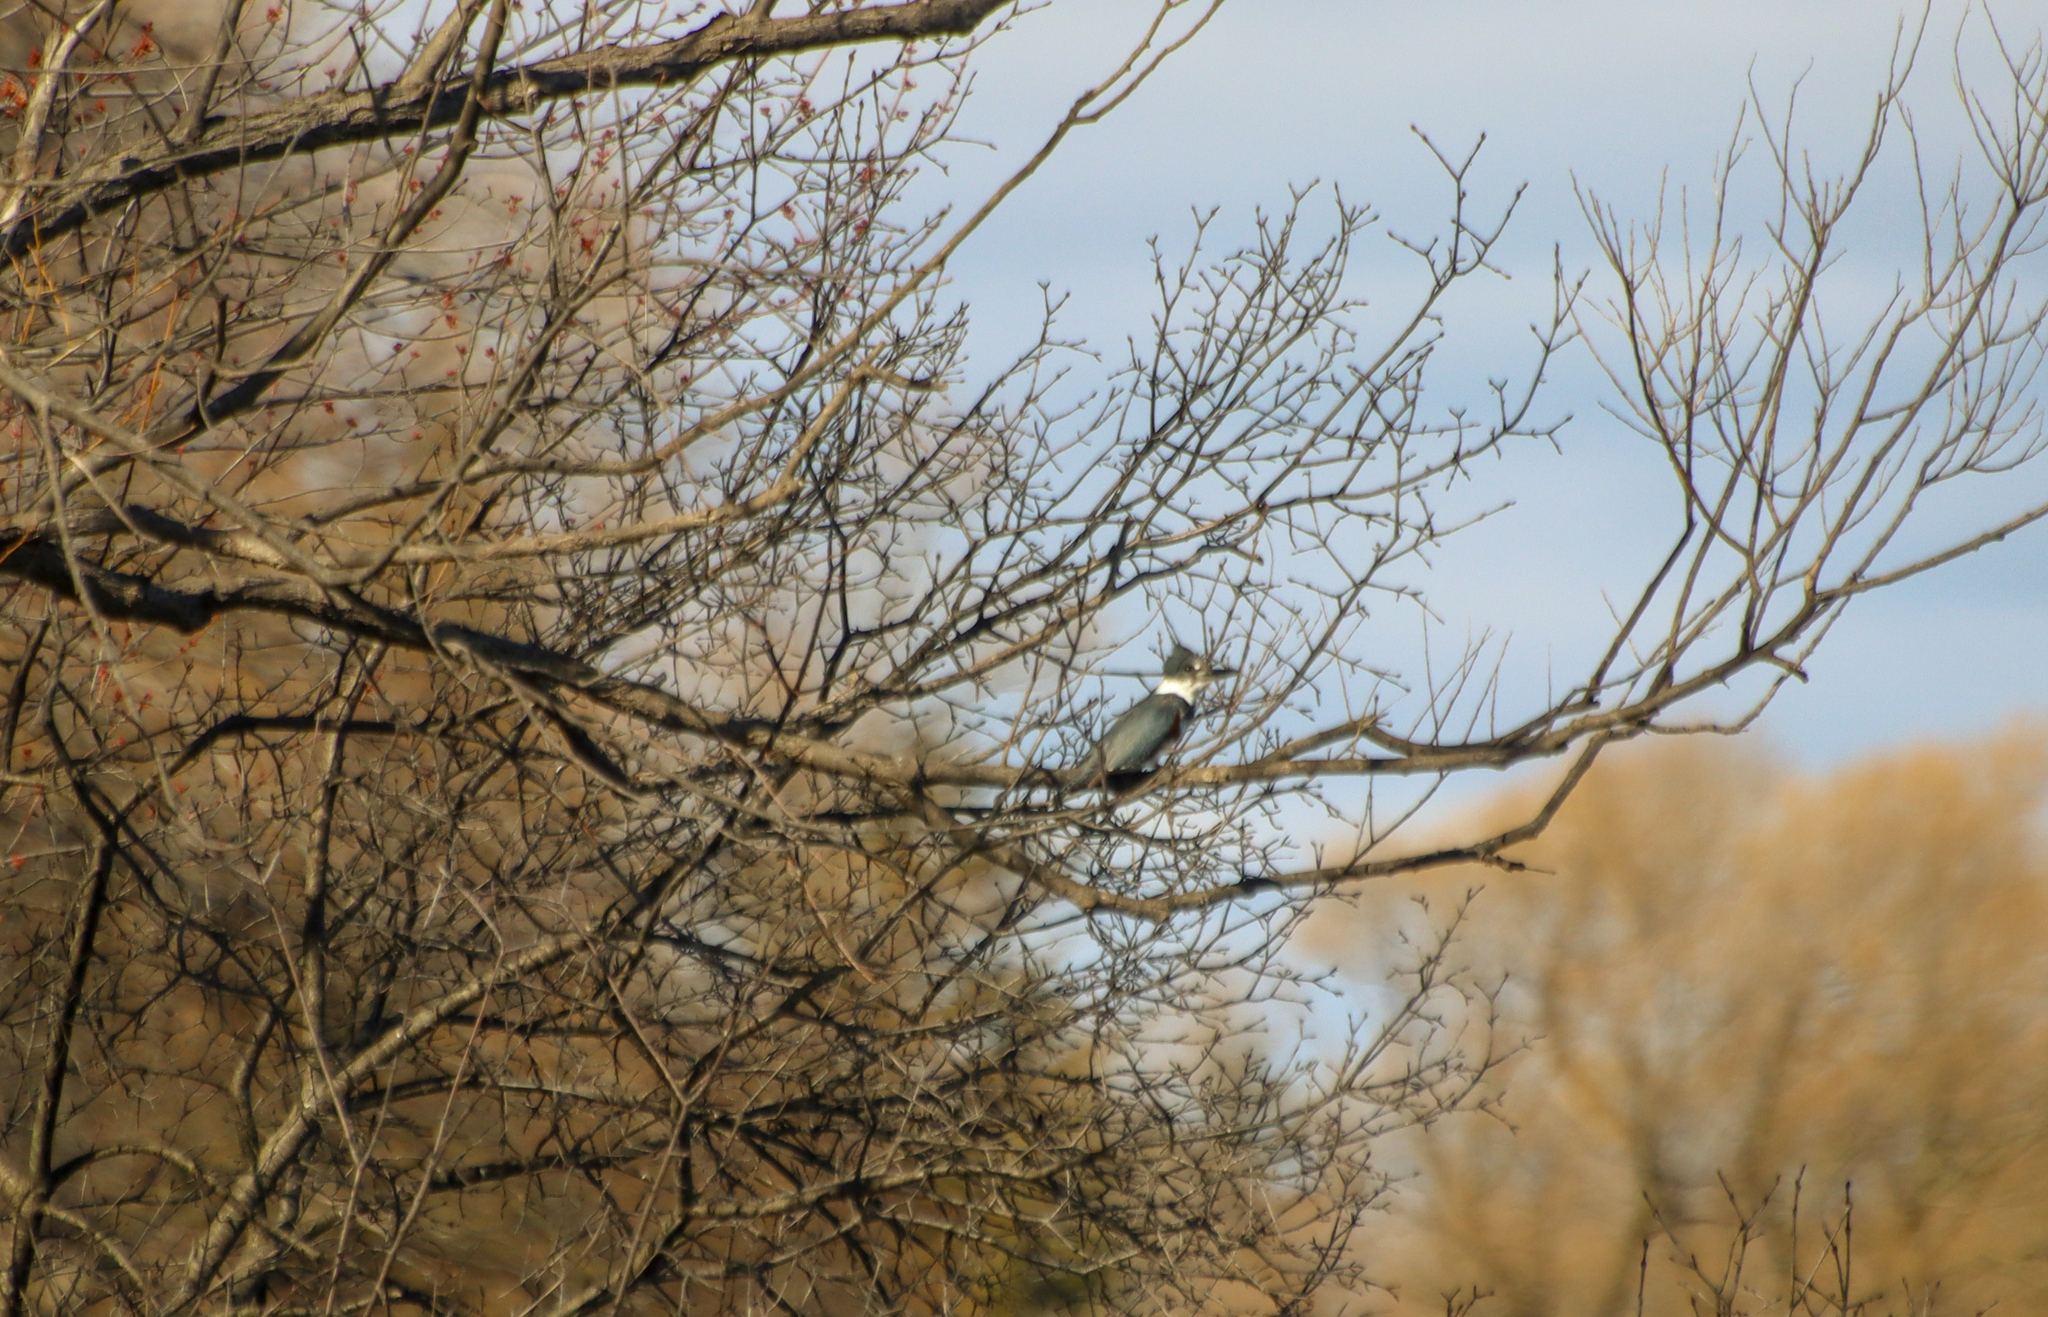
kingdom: Animalia
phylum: Chordata
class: Aves
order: Coraciiformes
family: Alcedinidae
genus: Megaceryle
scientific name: Megaceryle alcyon
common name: Belted kingfisher
